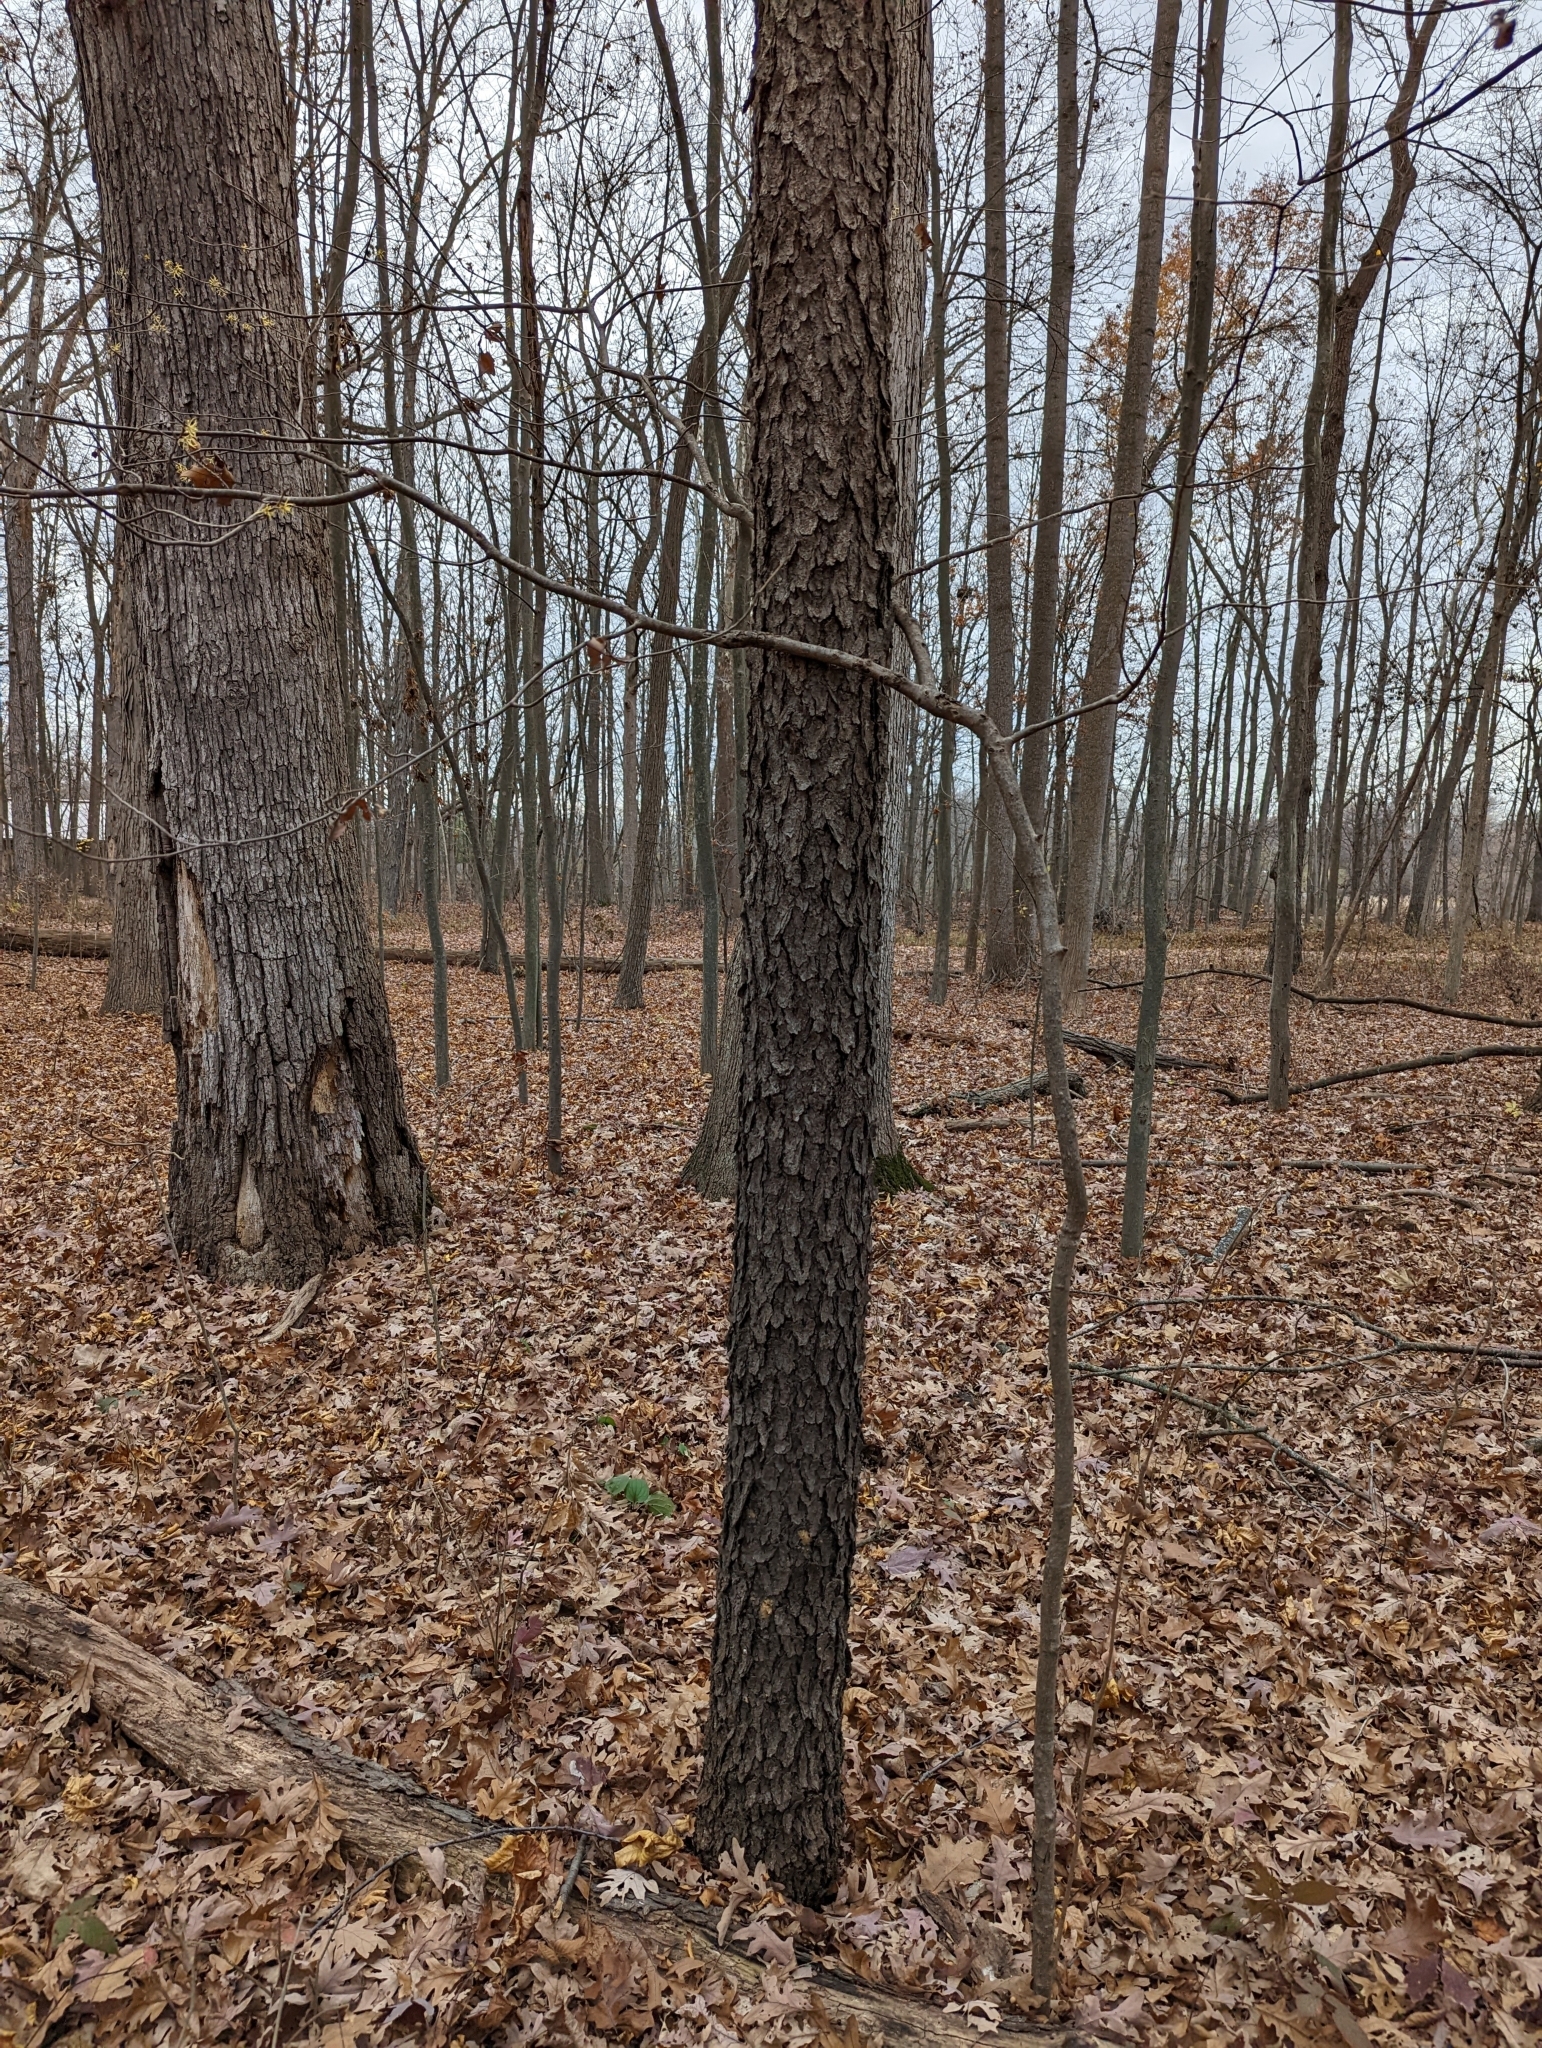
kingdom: Plantae
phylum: Tracheophyta
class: Magnoliopsida
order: Rosales
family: Rosaceae
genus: Prunus
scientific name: Prunus serotina
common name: Black cherry
